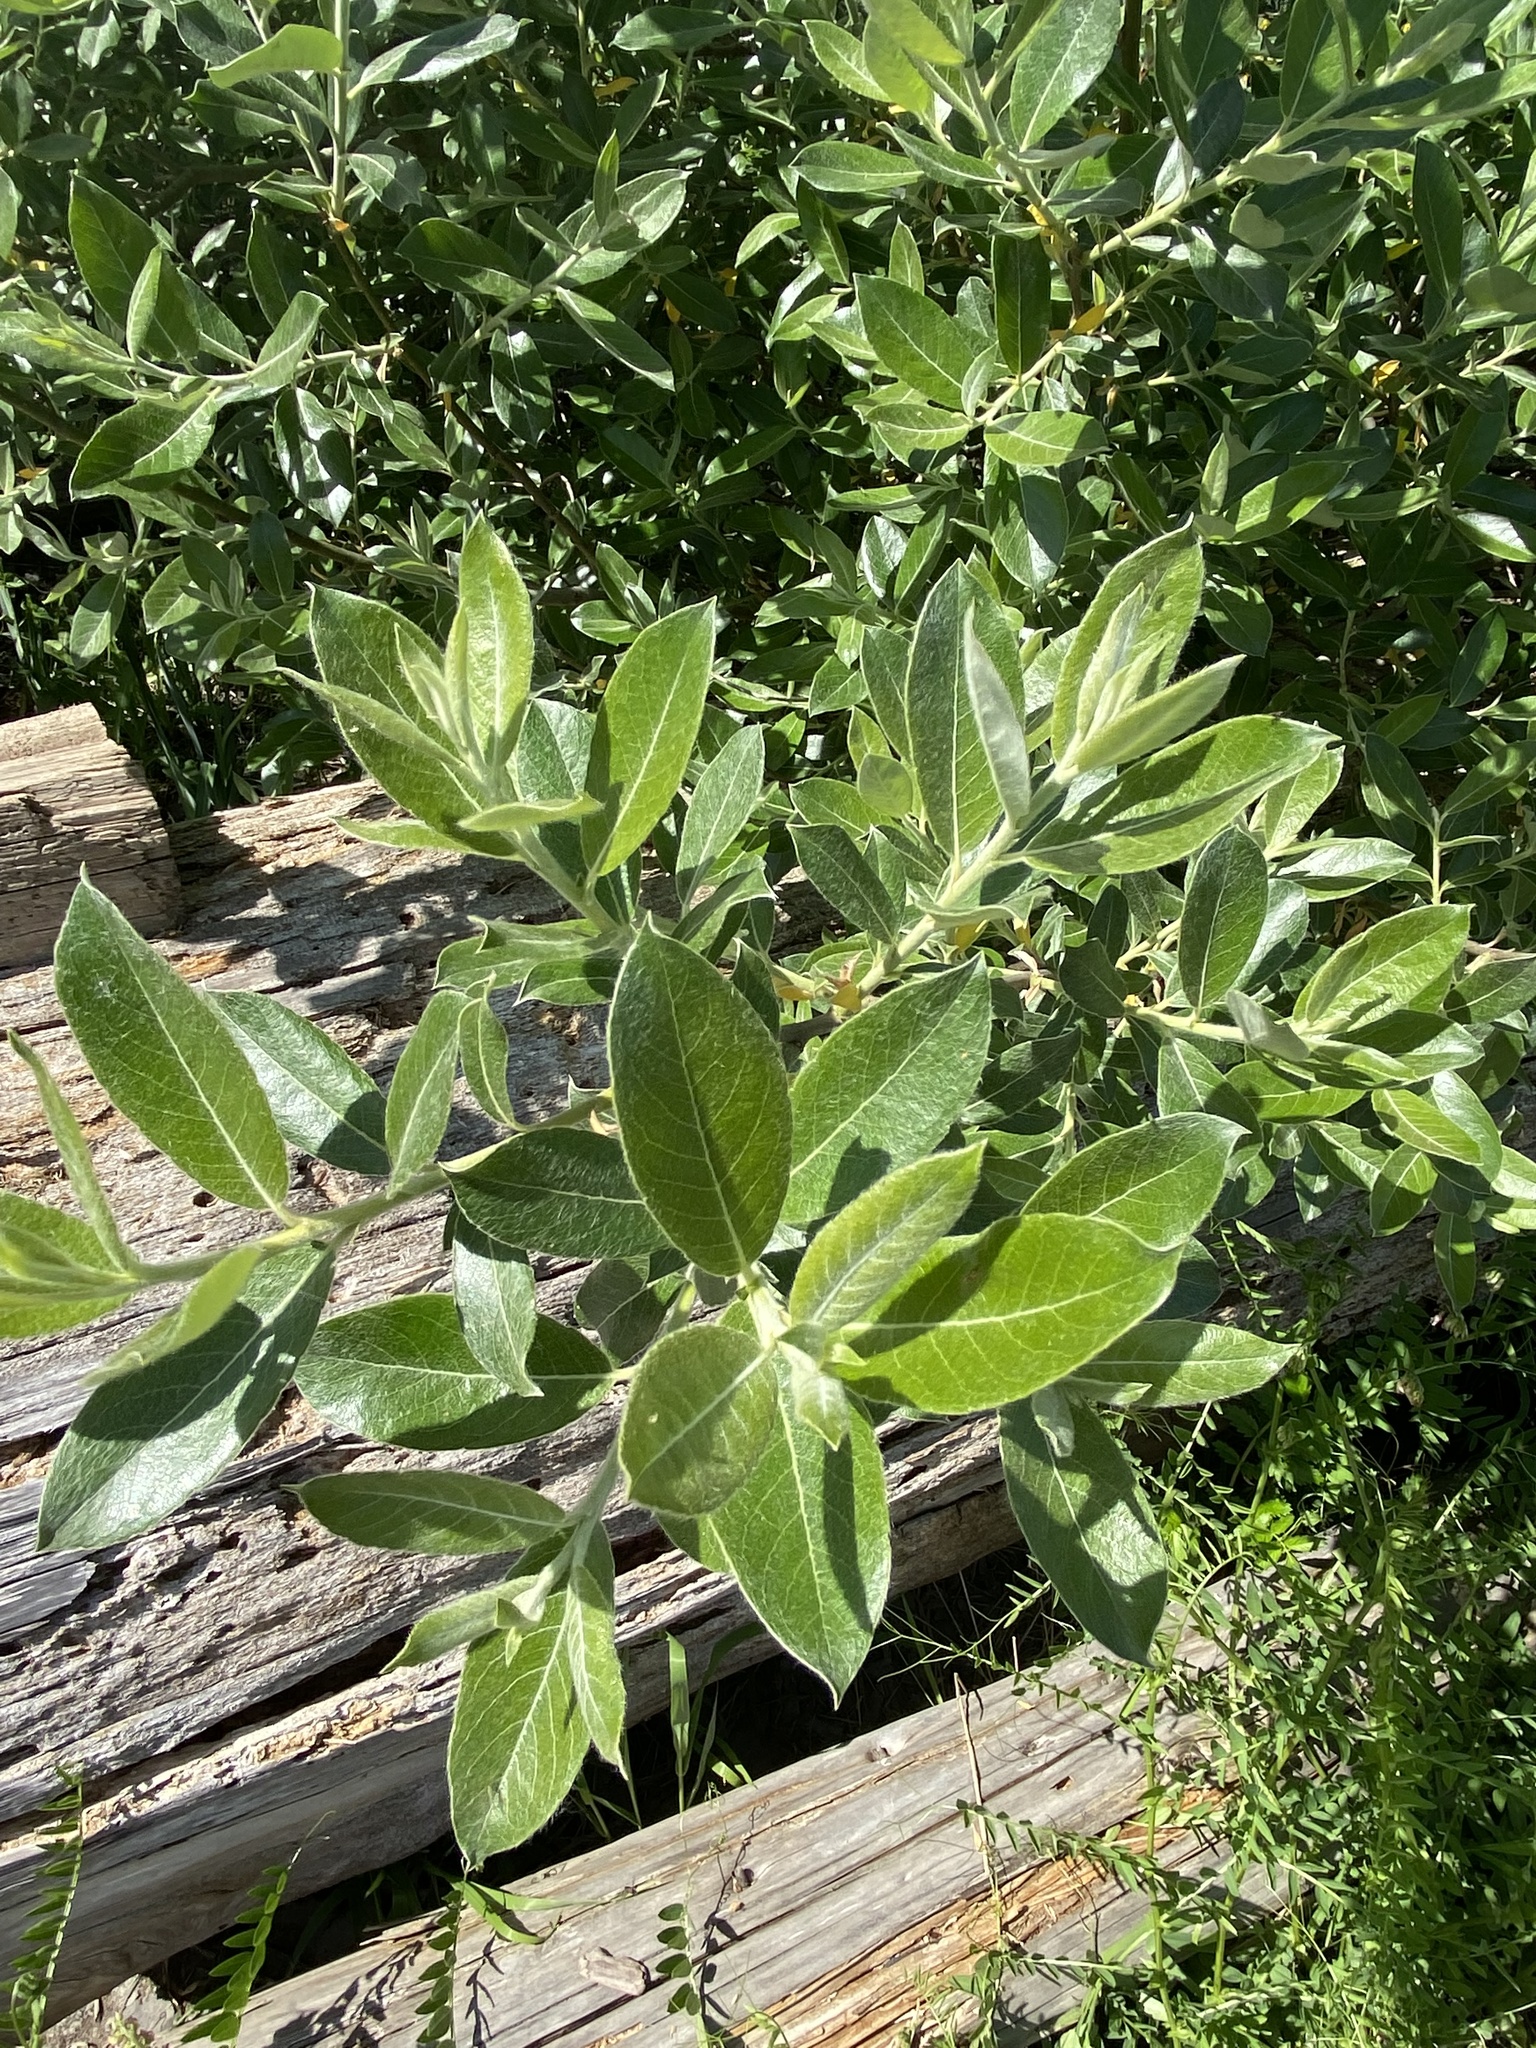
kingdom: Plantae
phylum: Tracheophyta
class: Magnoliopsida
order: Malpighiales
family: Salicaceae
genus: Salix
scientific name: Salix hookeriana
